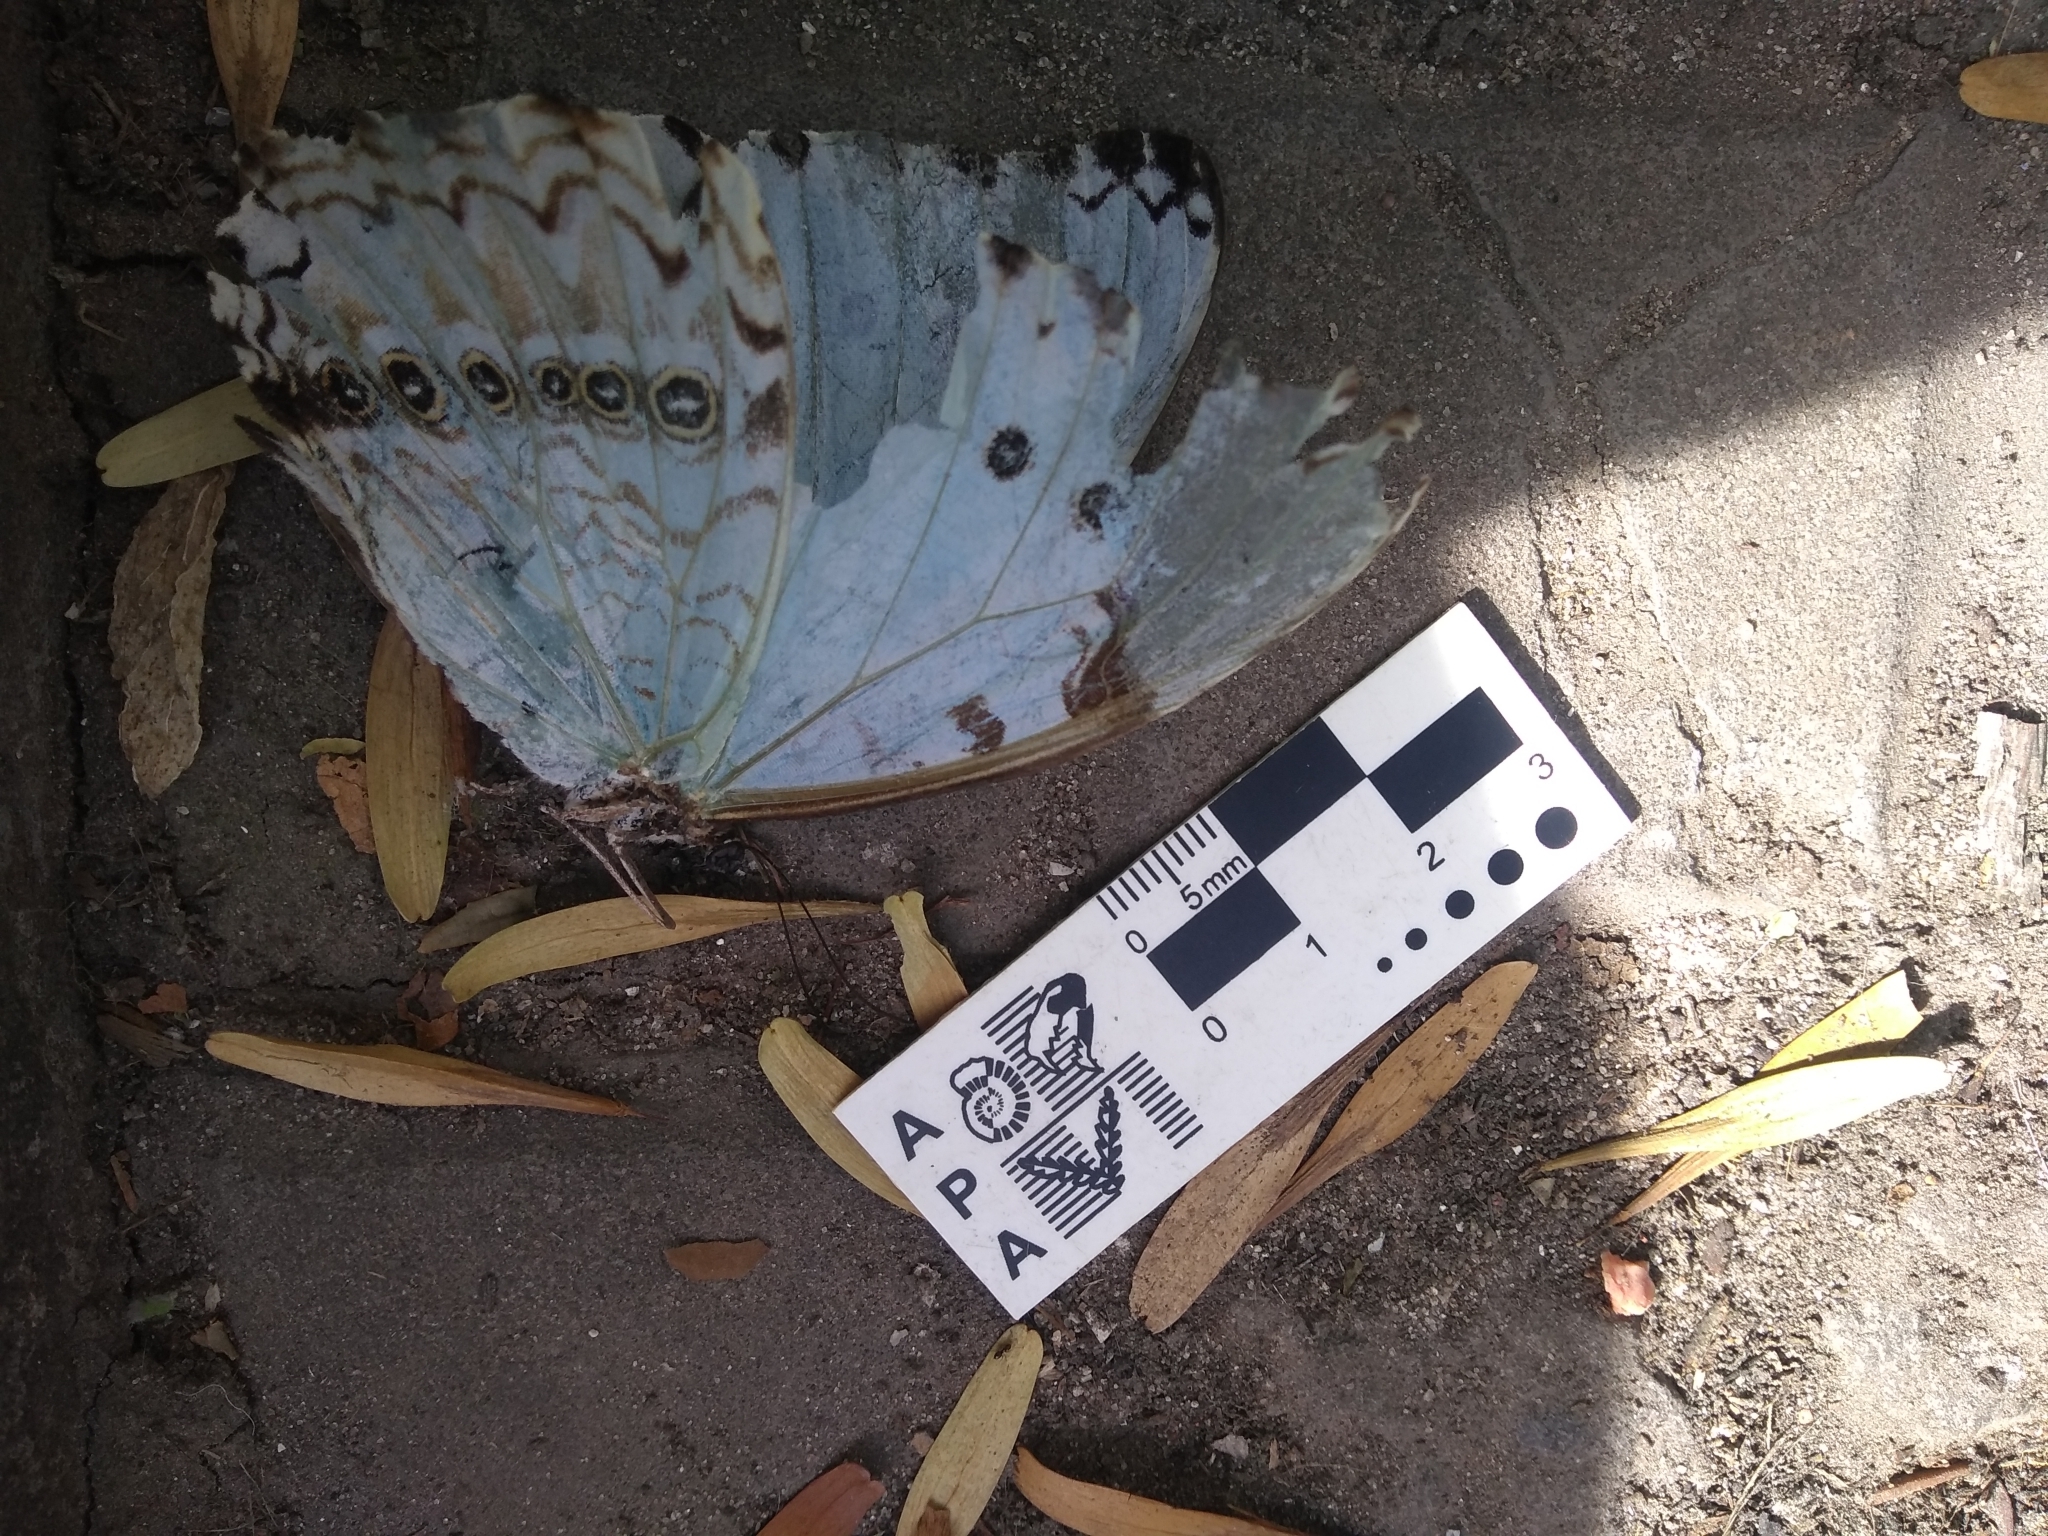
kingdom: Animalia
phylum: Arthropoda
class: Insecta
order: Lepidoptera
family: Nymphalidae
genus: Morpho
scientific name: Morpho epistrophus
